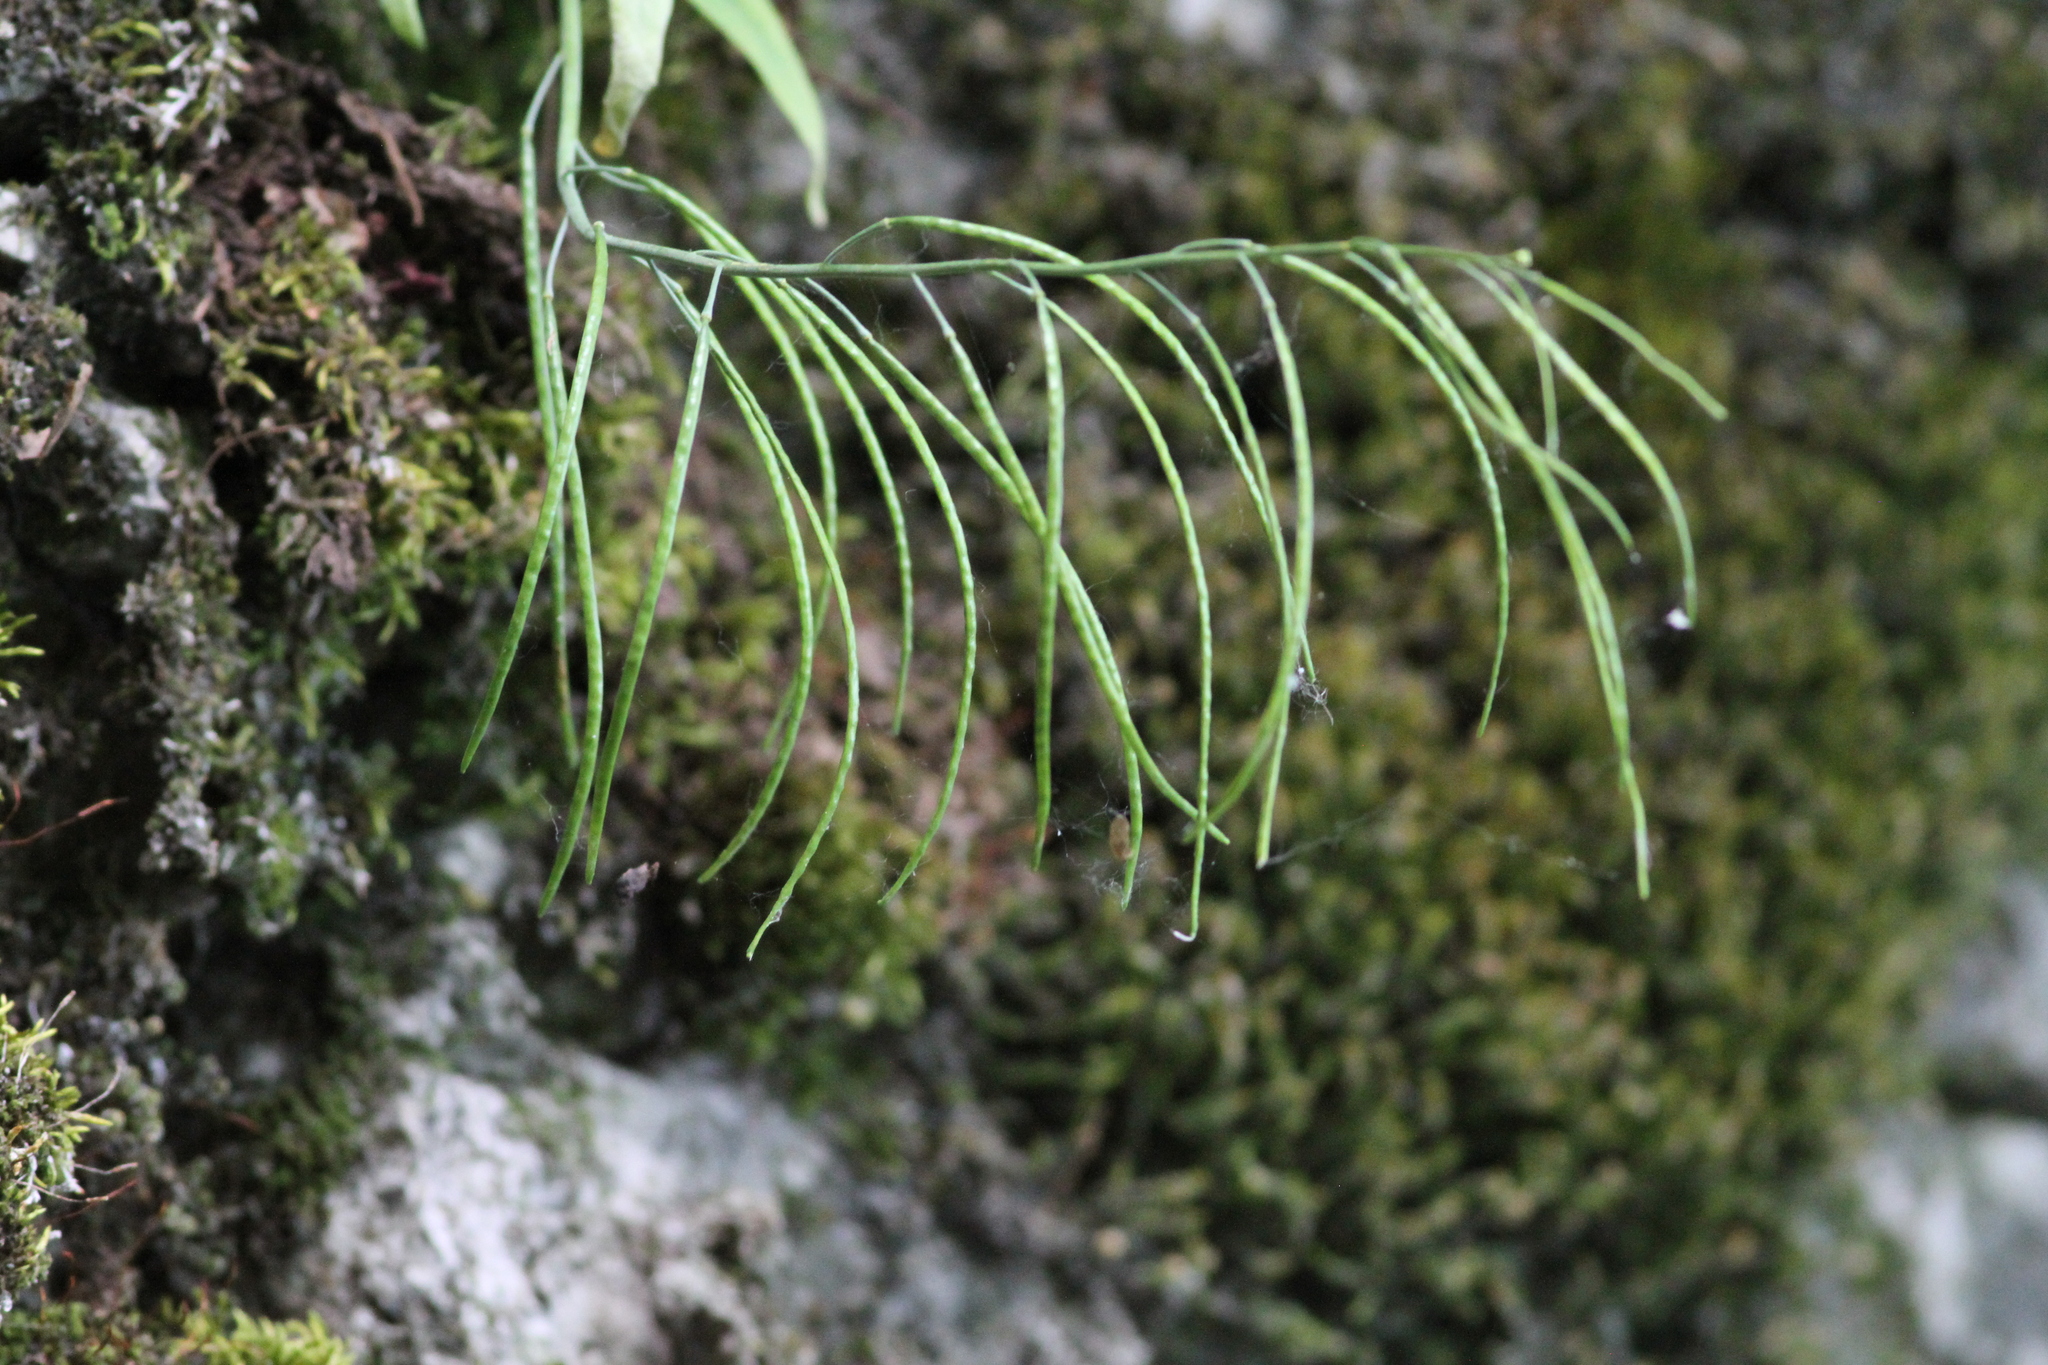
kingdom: Plantae
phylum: Tracheophyta
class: Magnoliopsida
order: Brassicales
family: Brassicaceae
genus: Borodinia
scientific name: Borodinia laevigata
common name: Smooth rockcress
